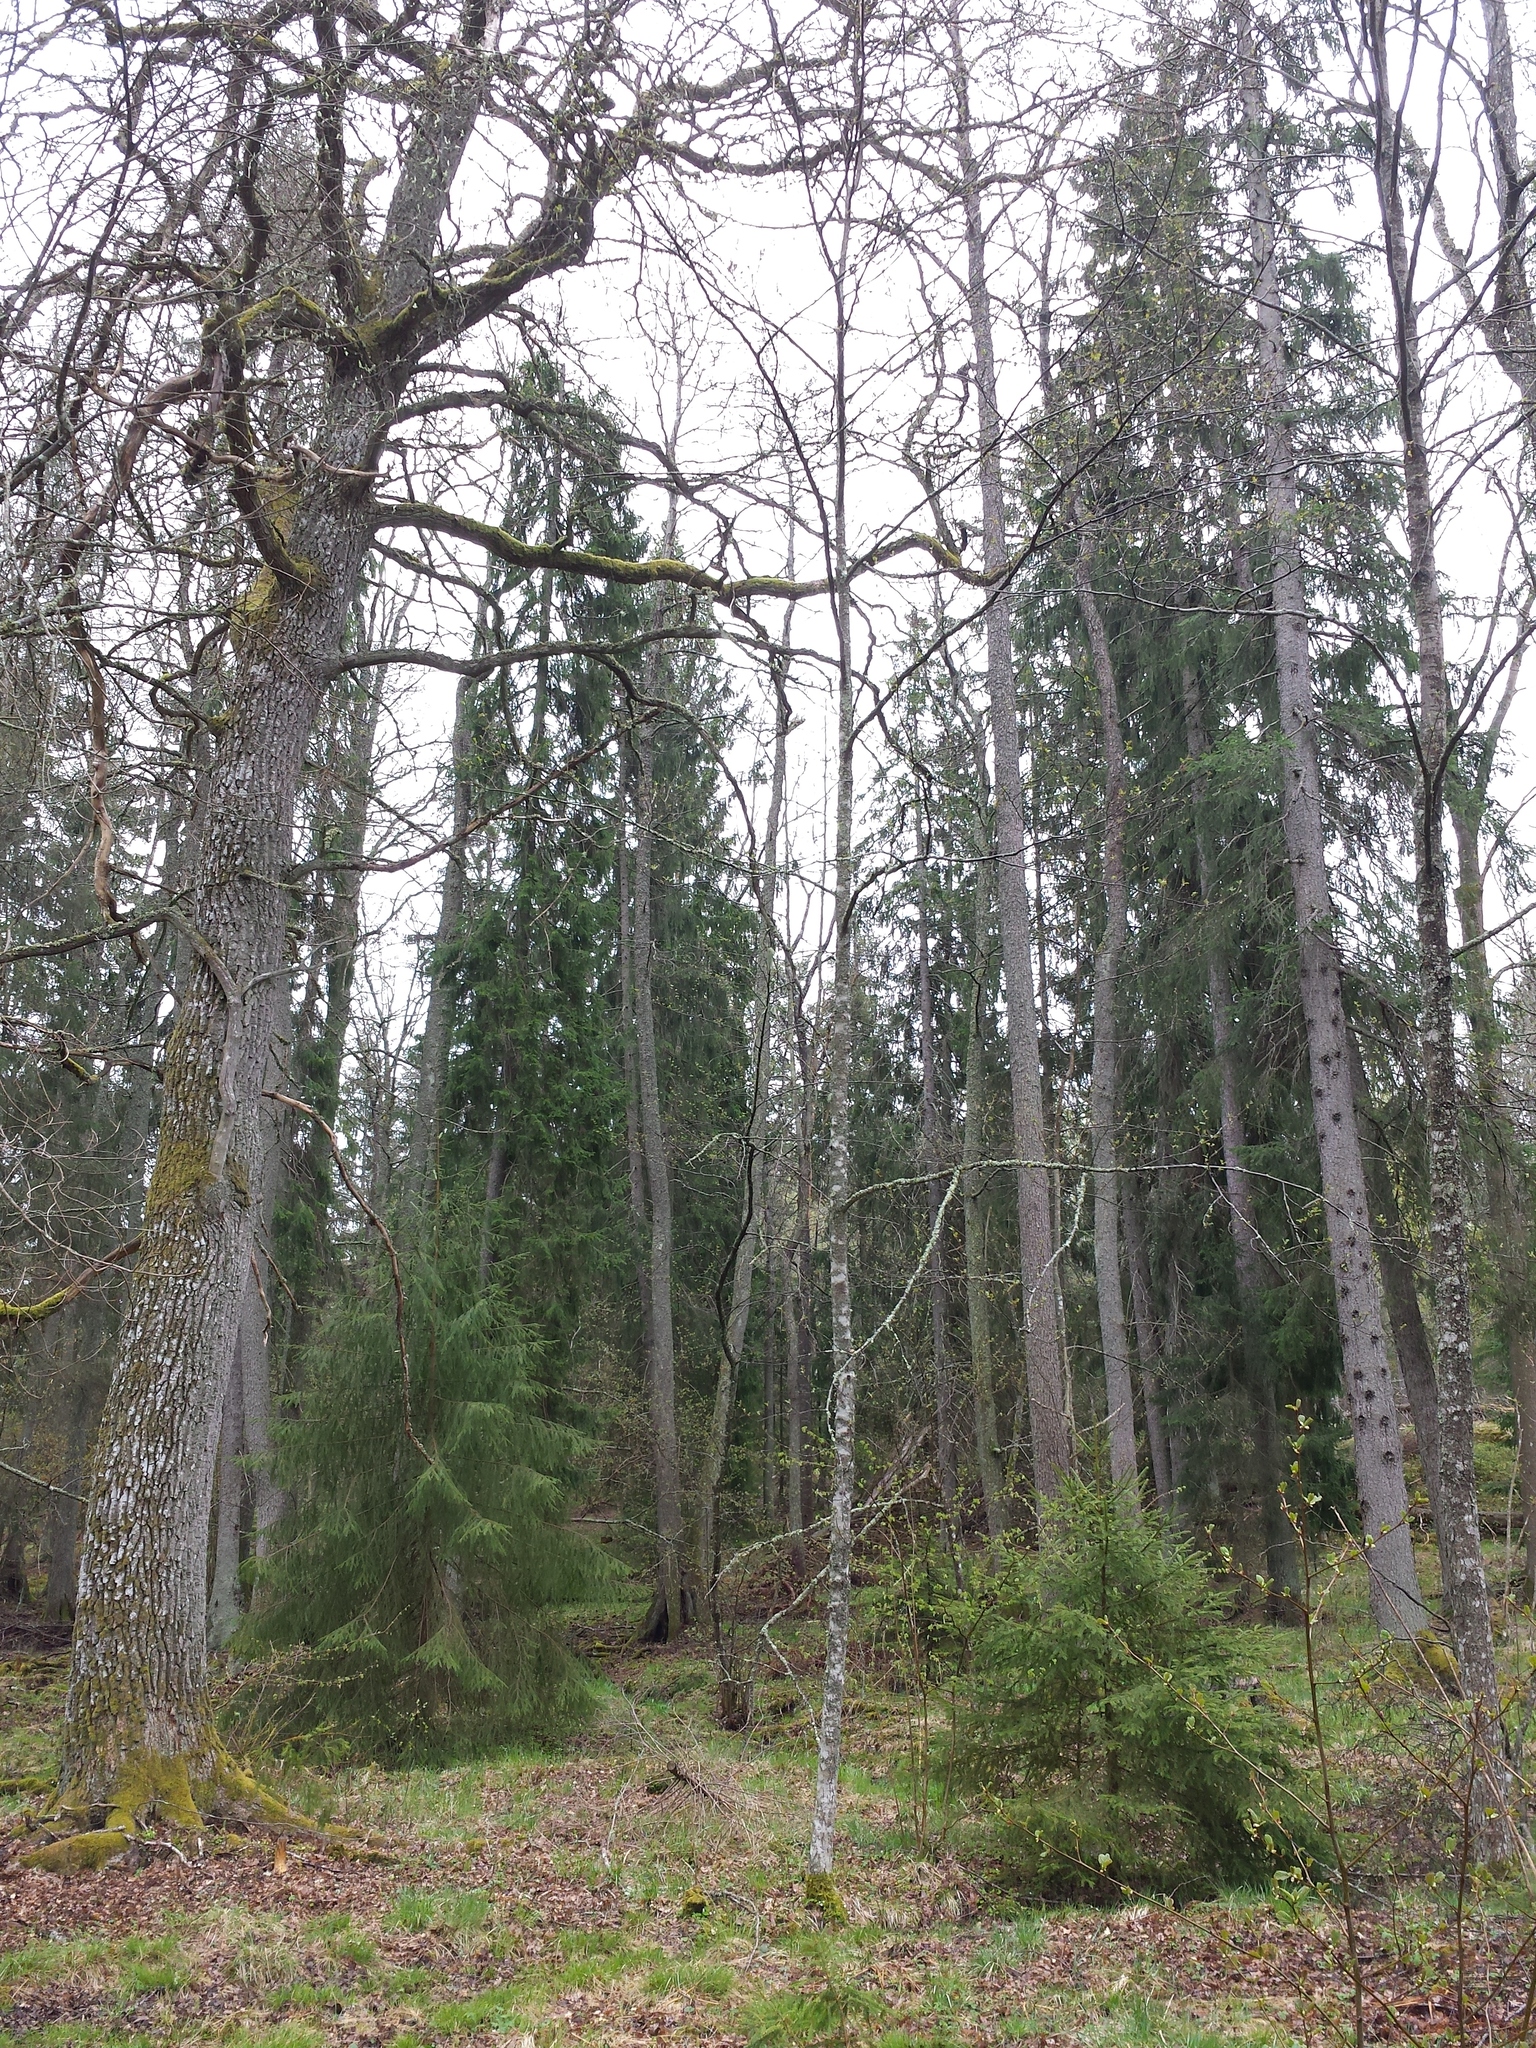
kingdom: Plantae
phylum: Tracheophyta
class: Pinopsida
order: Pinales
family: Pinaceae
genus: Picea
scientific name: Picea abies
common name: Norway spruce
